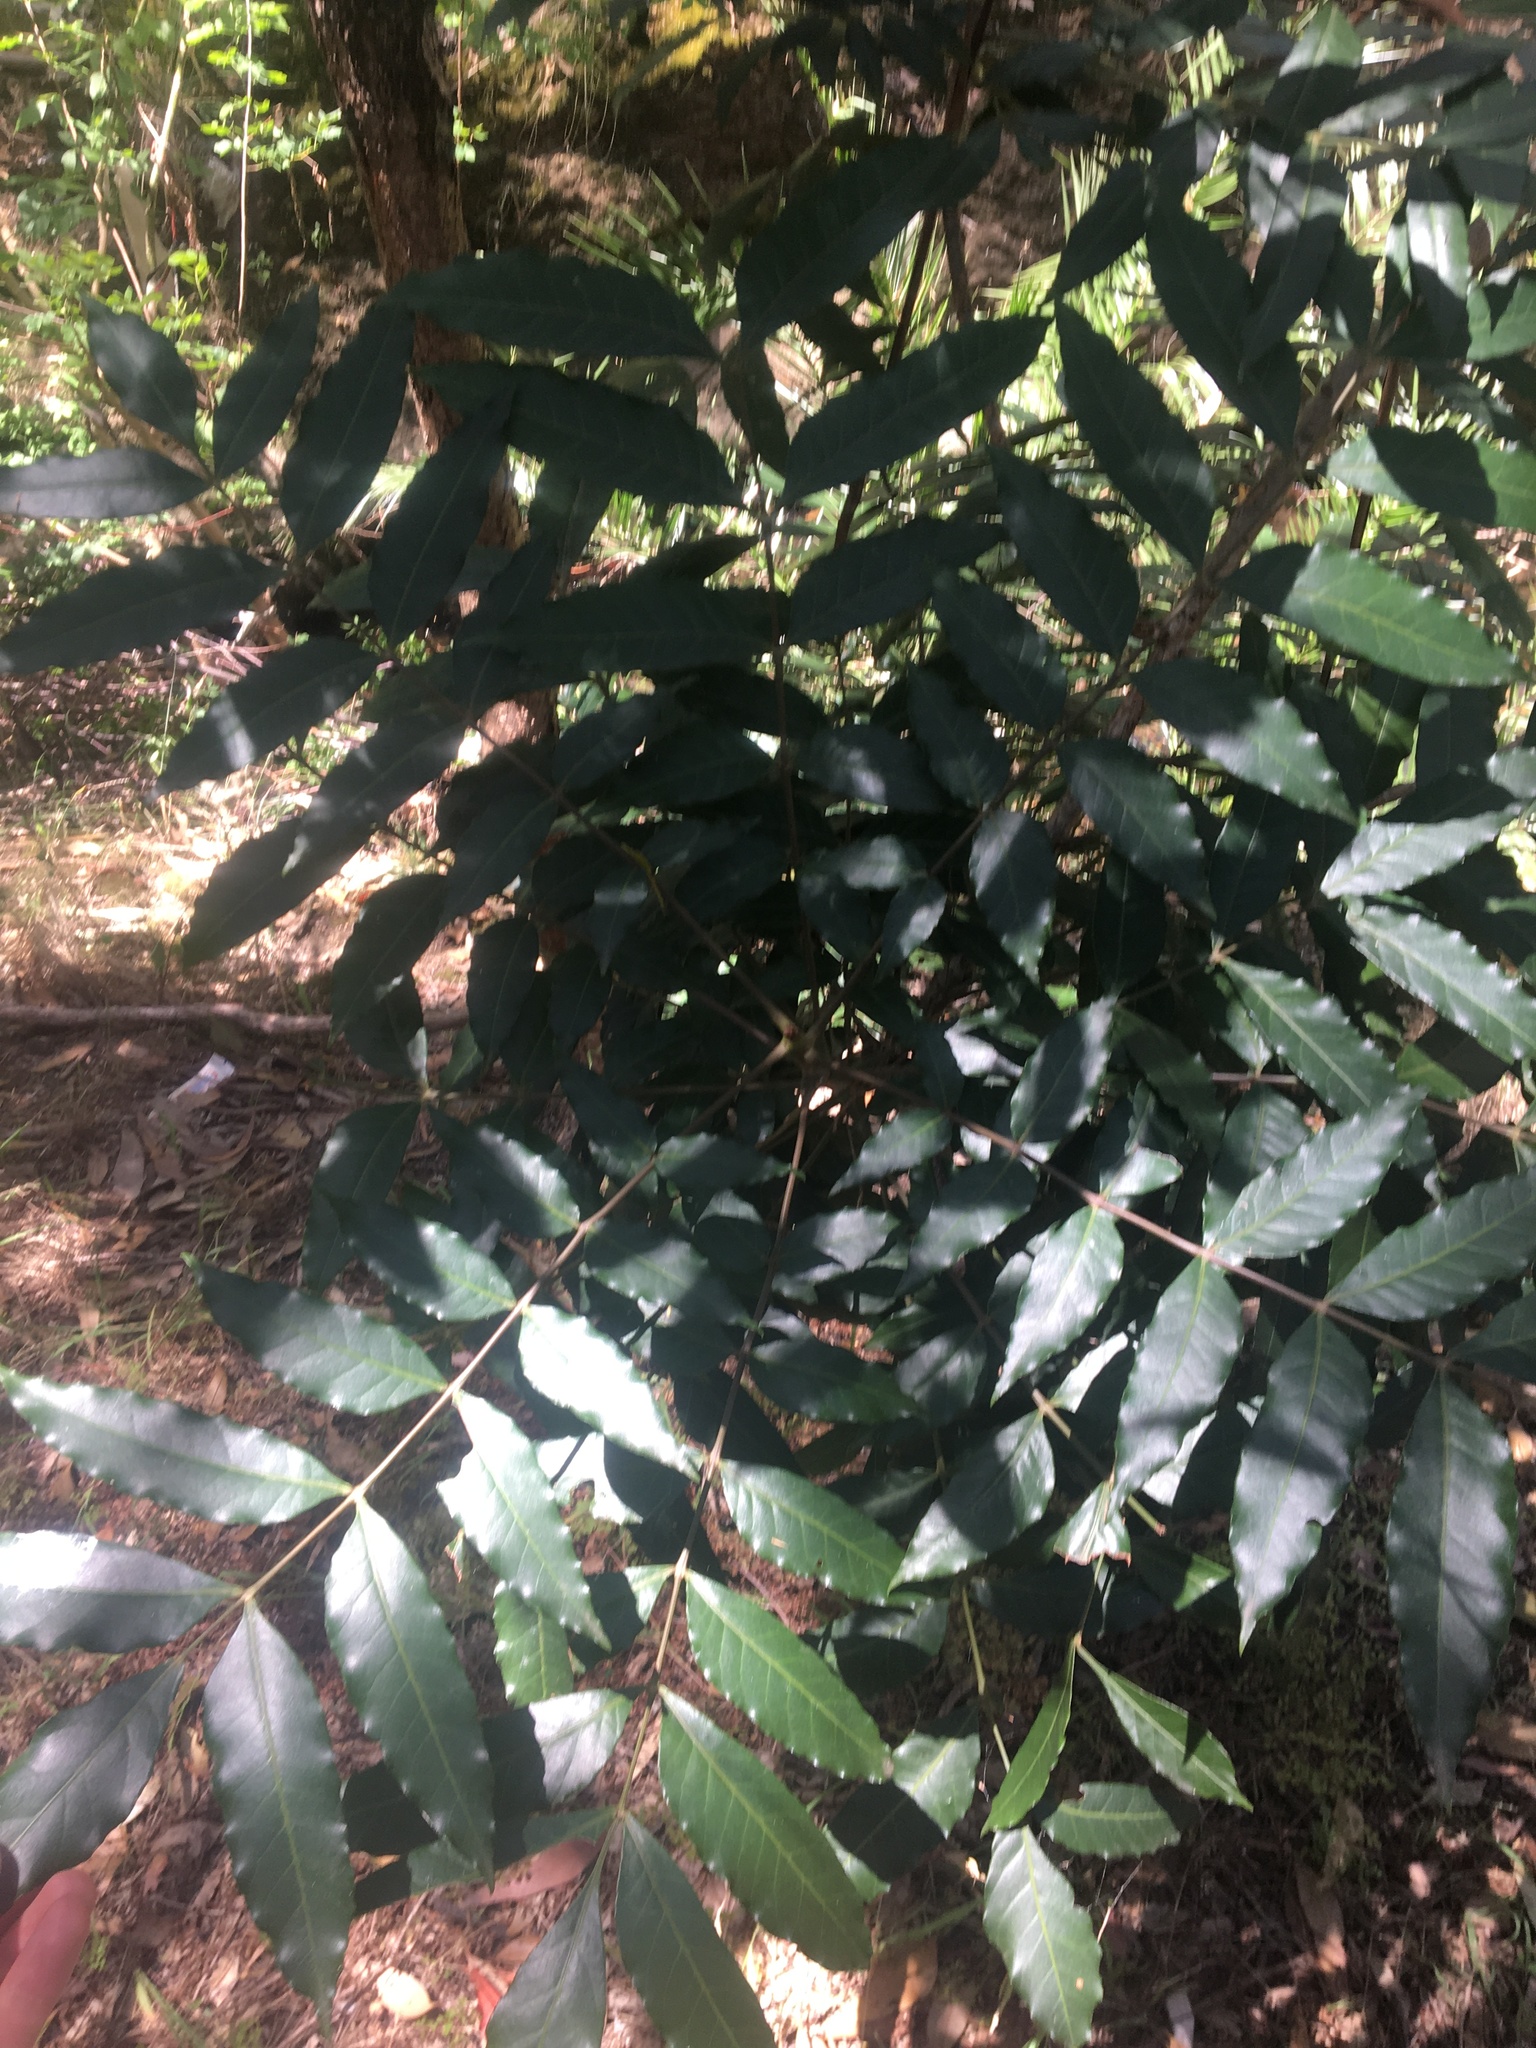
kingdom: Plantae
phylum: Tracheophyta
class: Magnoliopsida
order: Sapindales
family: Anacardiaceae
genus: Harpephyllum
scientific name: Harpephyllum caffrum
